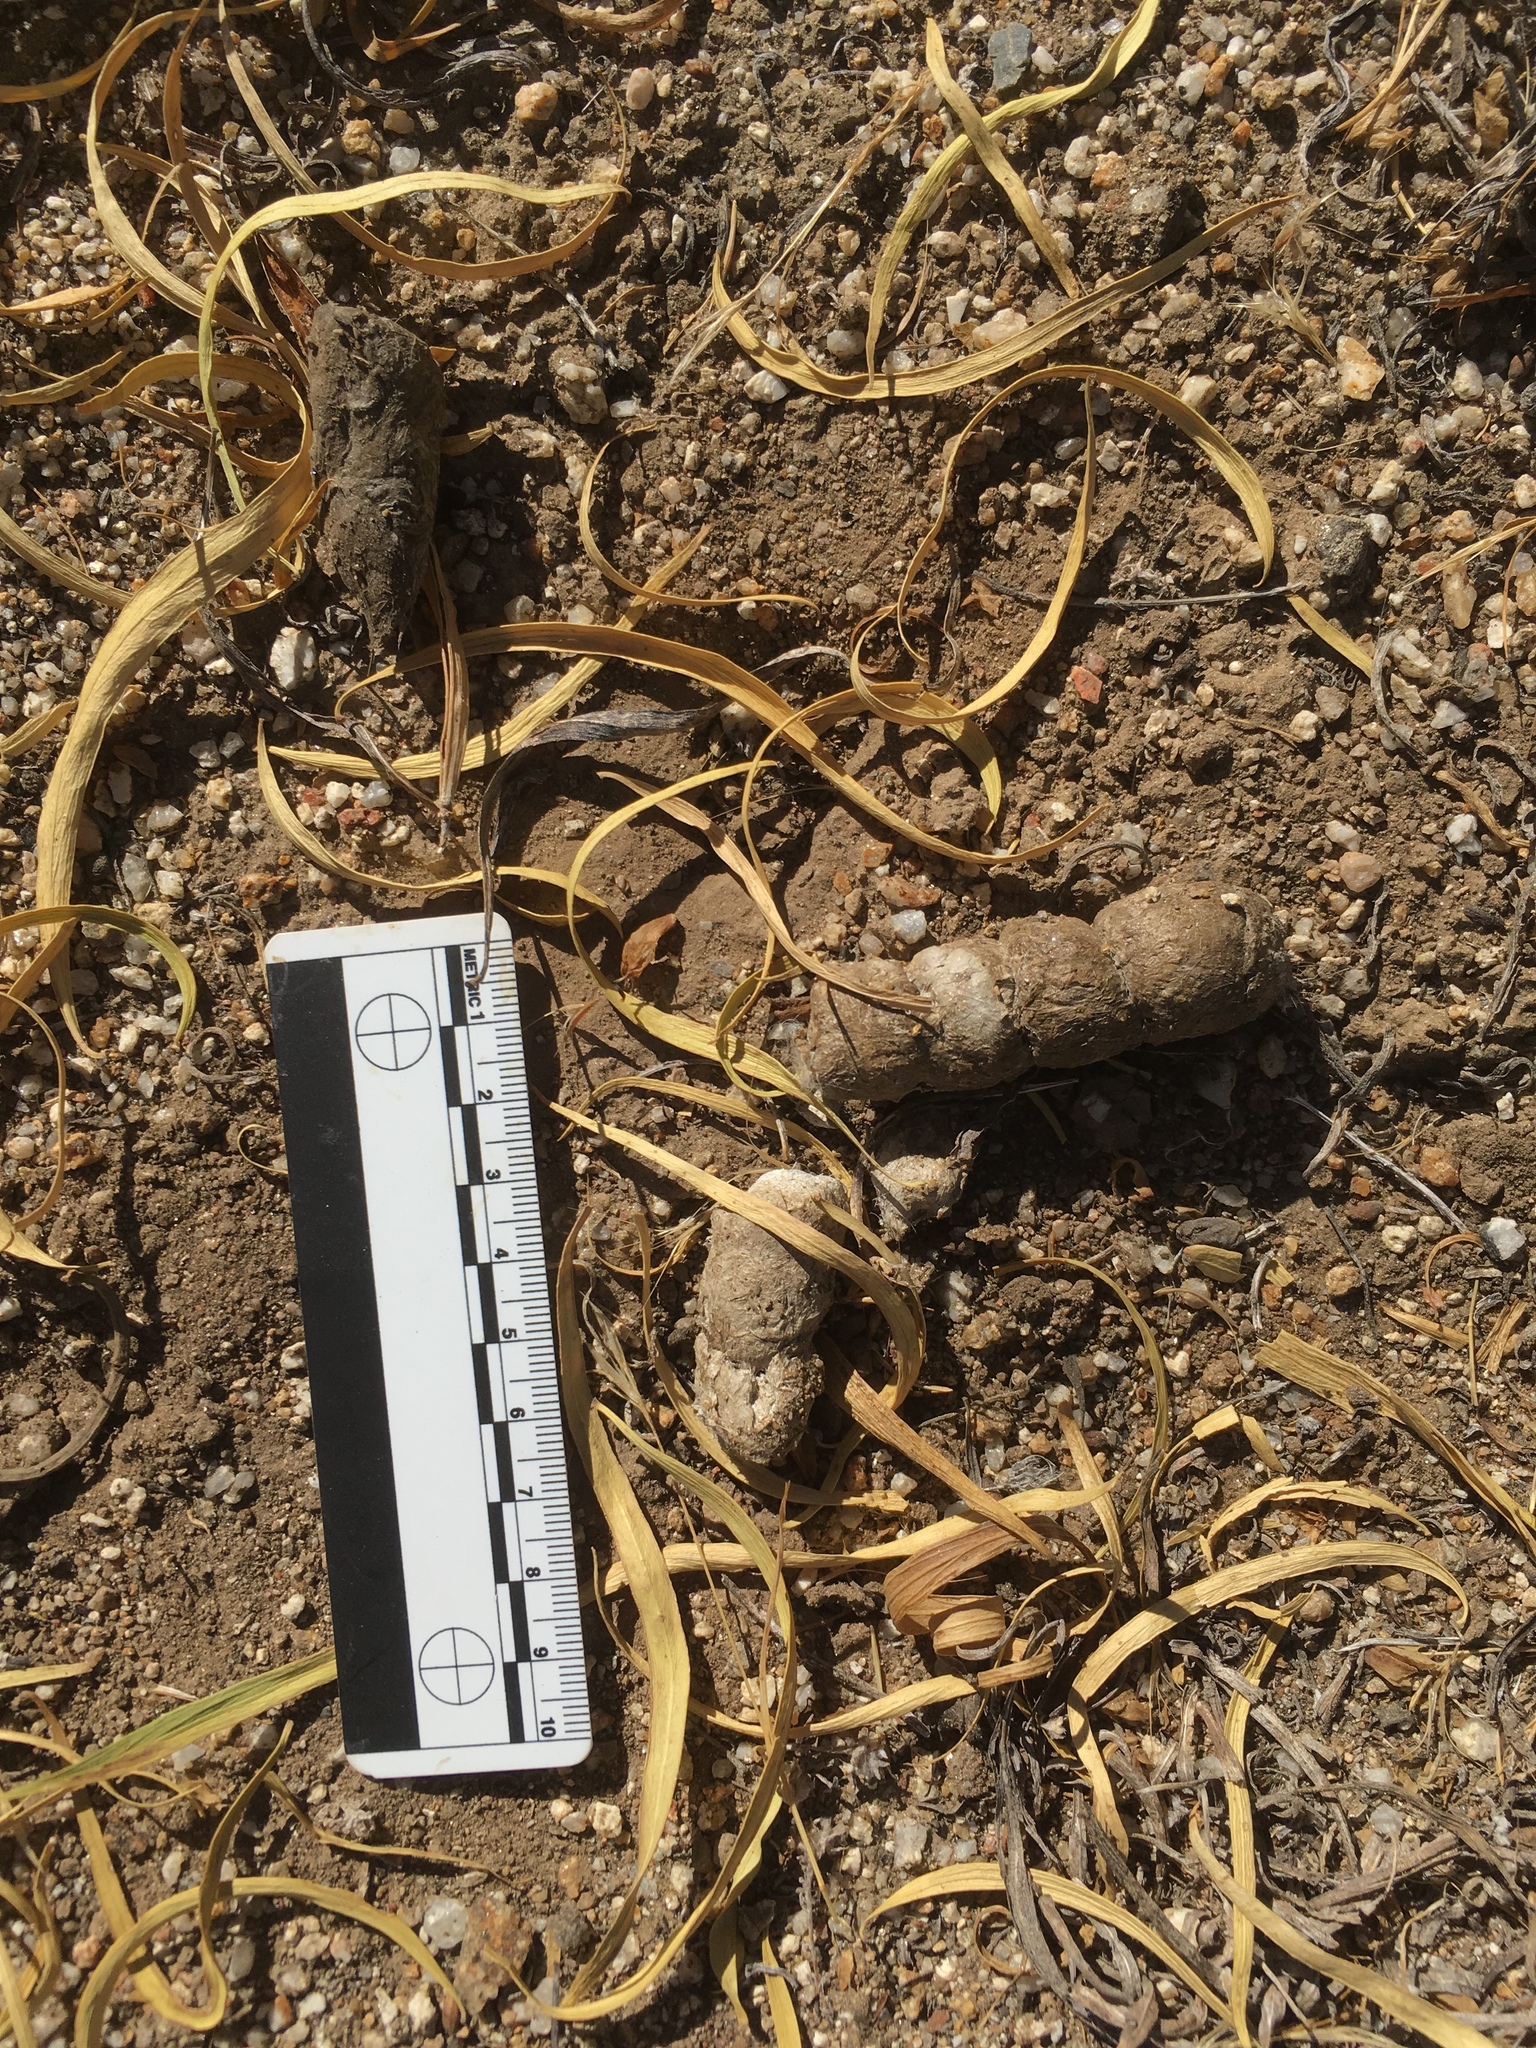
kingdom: Animalia
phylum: Chordata
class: Mammalia
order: Carnivora
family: Felidae
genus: Lynx
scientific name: Lynx rufus
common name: Bobcat
